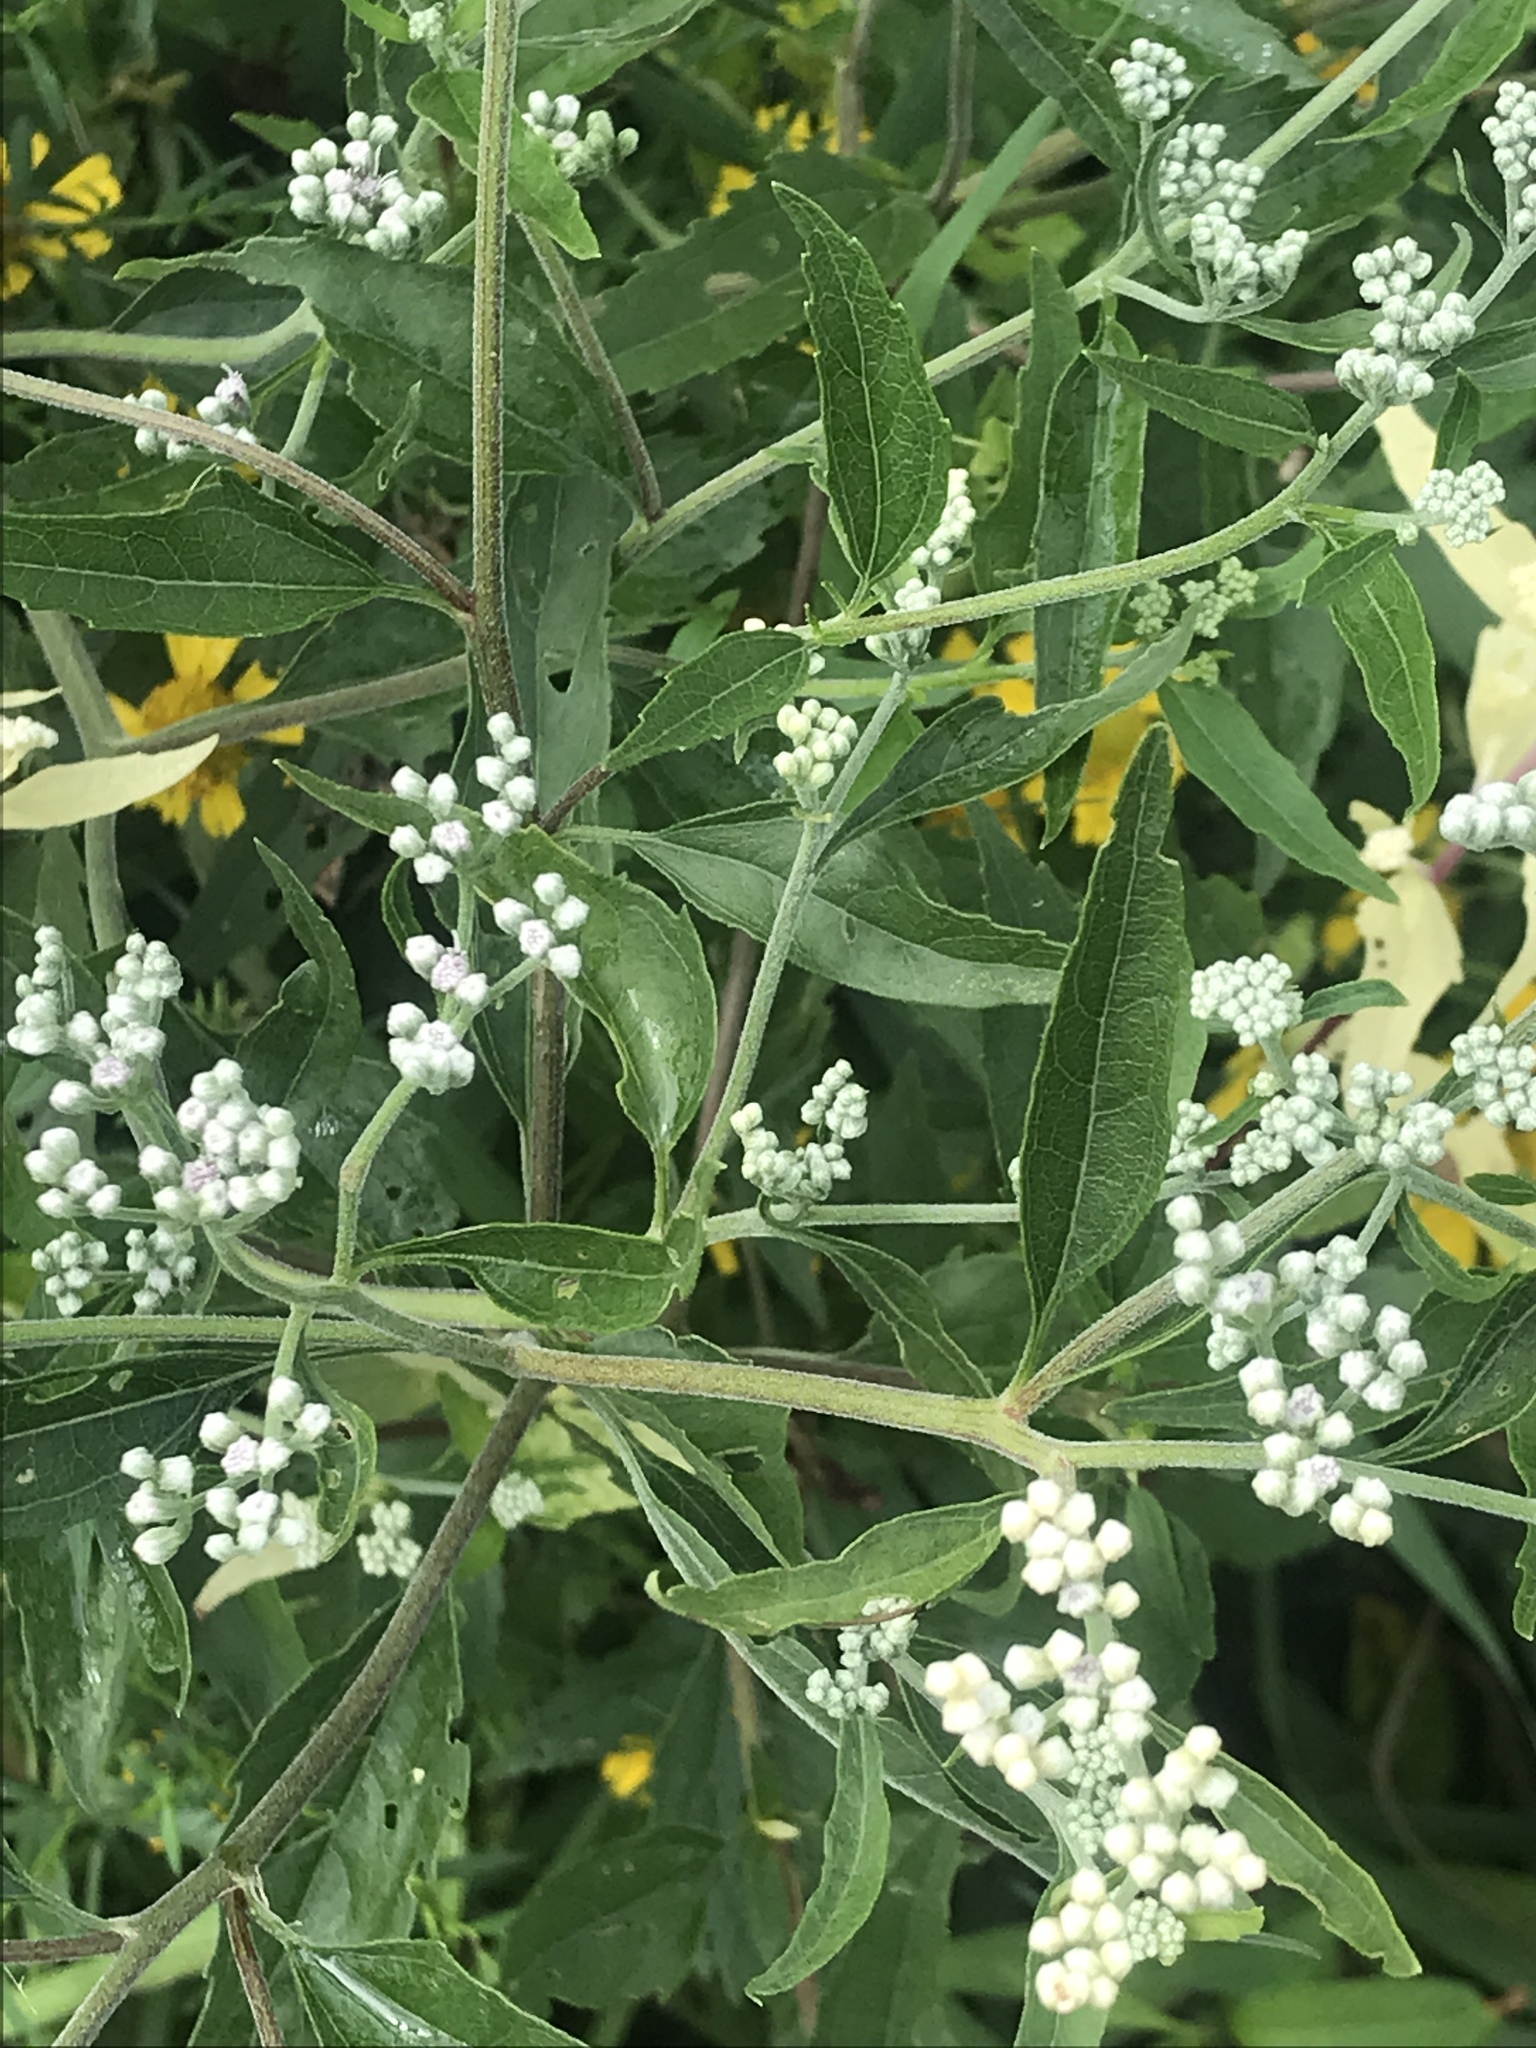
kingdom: Plantae
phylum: Tracheophyta
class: Magnoliopsida
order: Asterales
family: Asteraceae
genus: Eupatorium
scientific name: Eupatorium serotinum
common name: Late boneset
